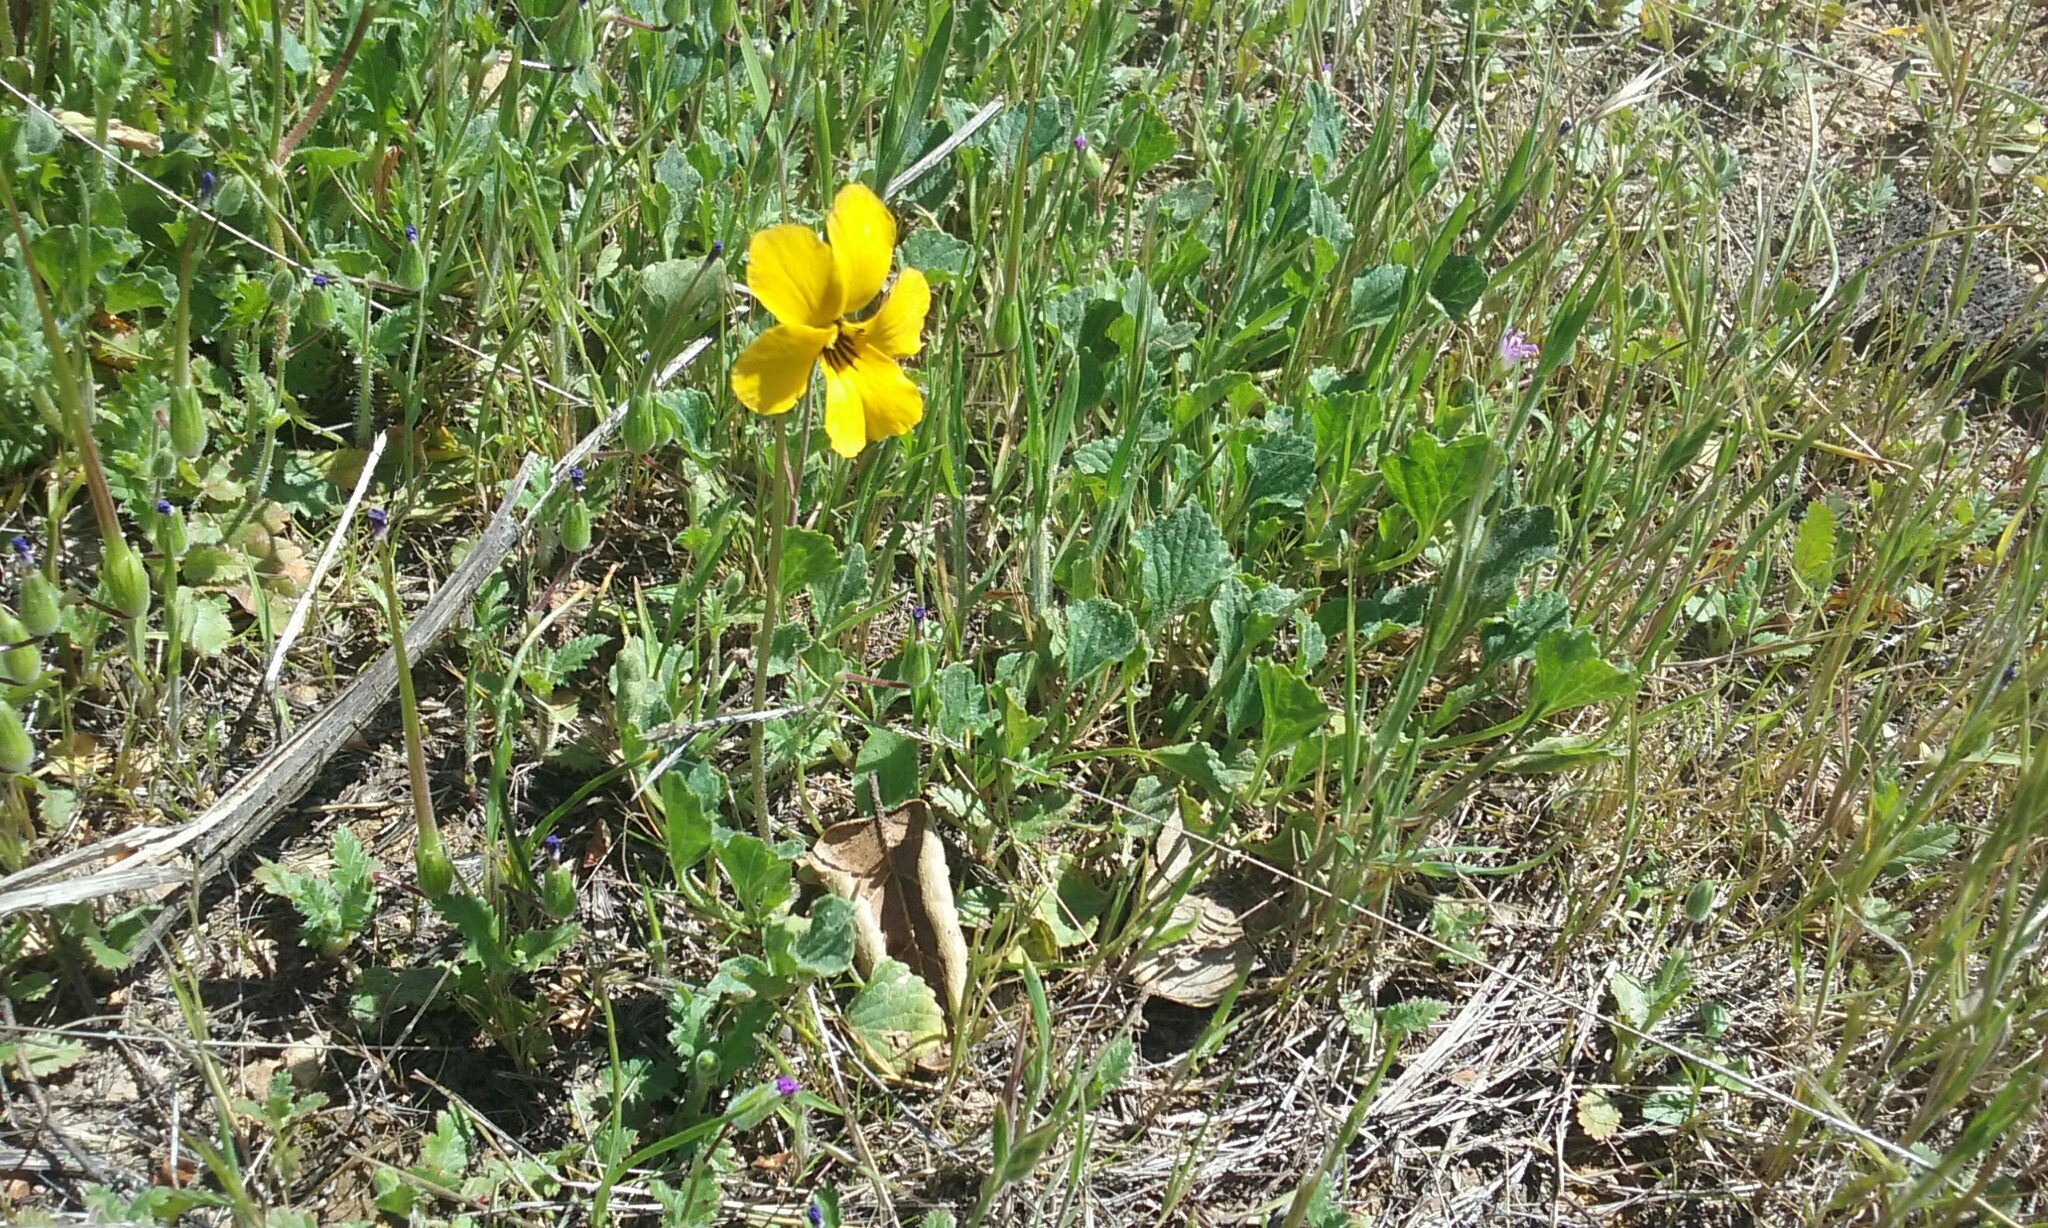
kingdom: Plantae
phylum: Tracheophyta
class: Magnoliopsida
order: Malpighiales
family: Violaceae
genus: Viola
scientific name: Viola pedunculata
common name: California golden violet
